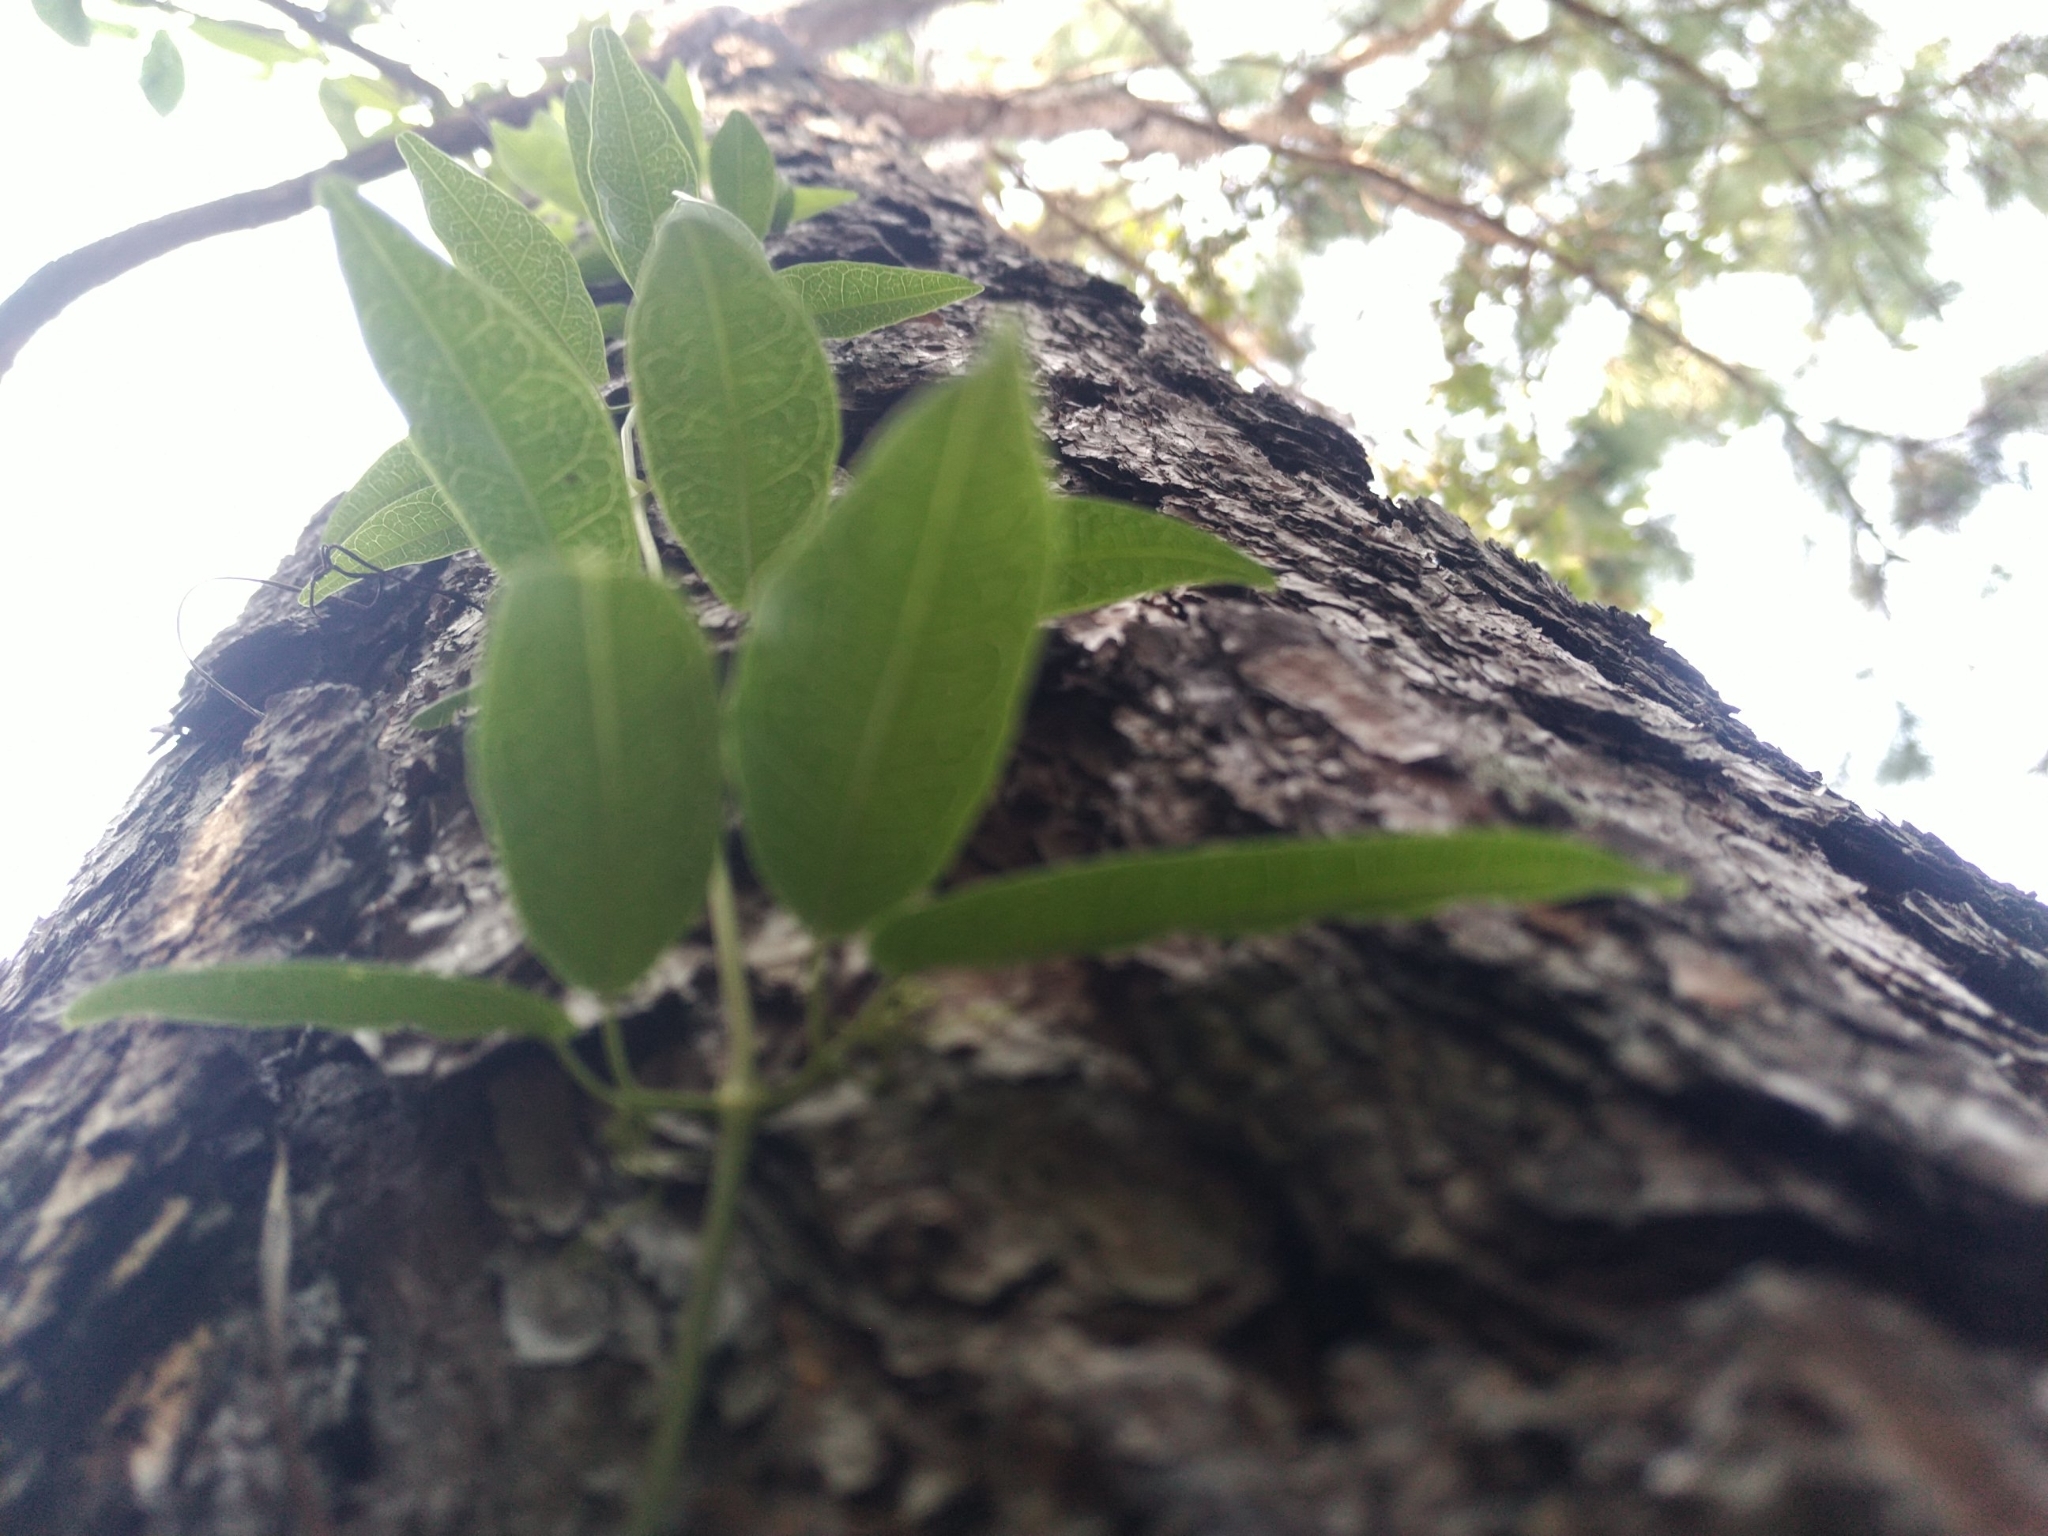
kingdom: Plantae
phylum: Tracheophyta
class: Magnoliopsida
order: Lamiales
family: Bignoniaceae
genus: Bignonia
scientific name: Bignonia capreolata
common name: Crossvine
